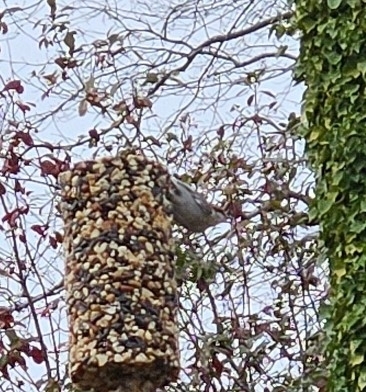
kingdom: Animalia
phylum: Chordata
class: Aves
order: Passeriformes
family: Sittidae
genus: Sitta
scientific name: Sitta pusilla
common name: Brown-headed nuthatch
